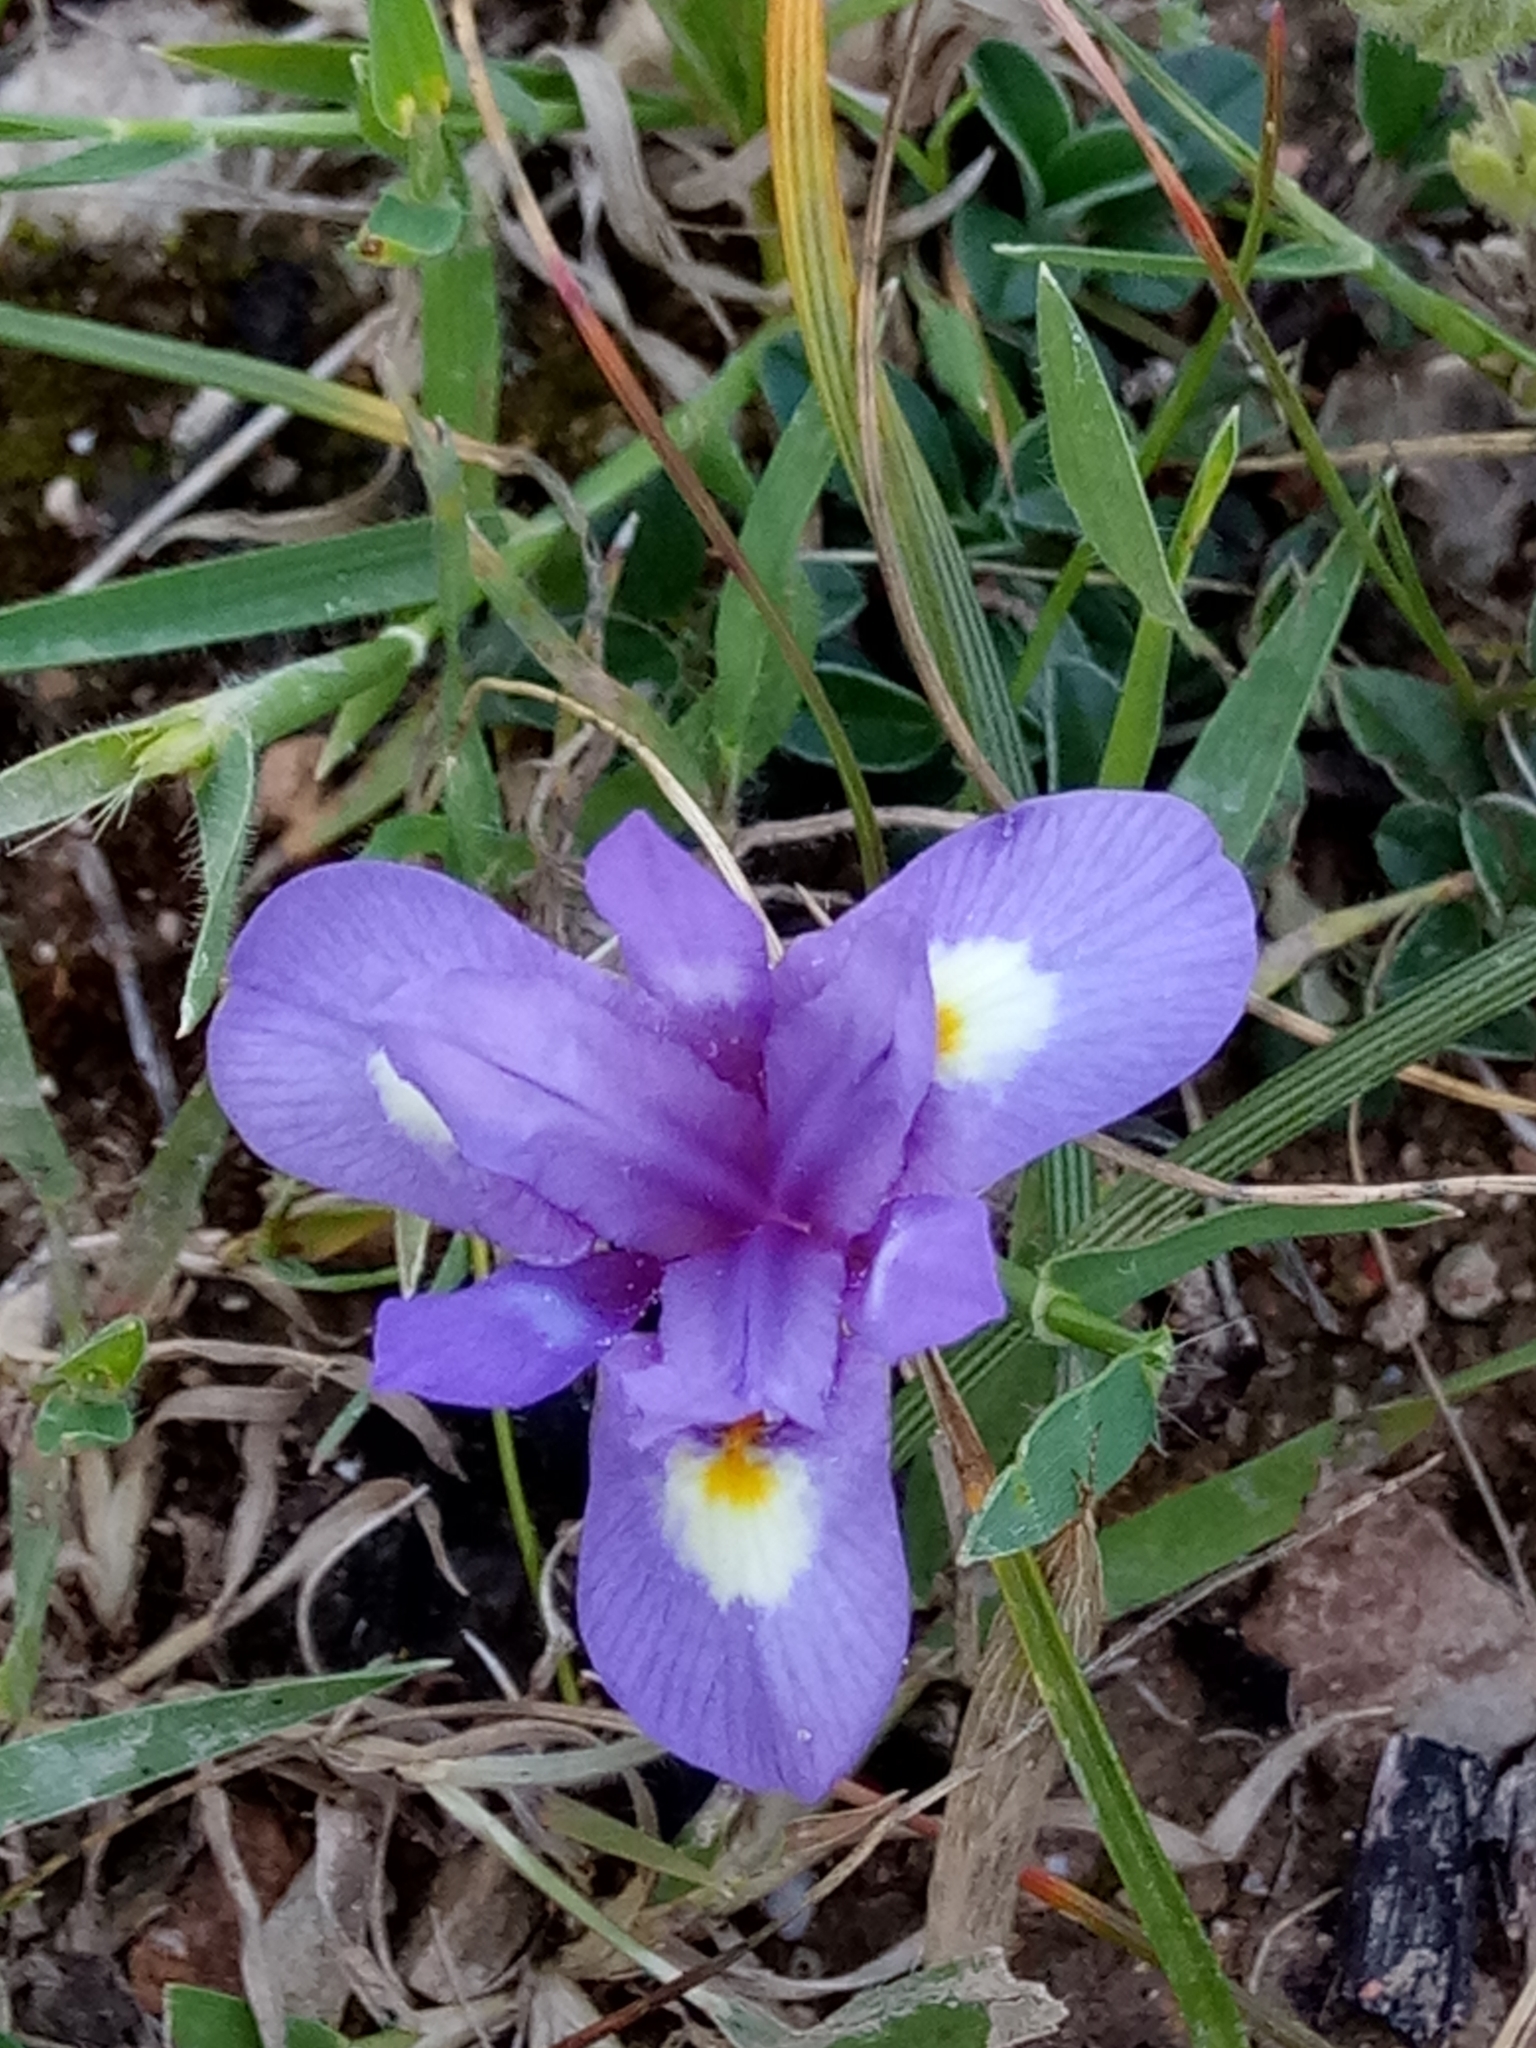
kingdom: Plantae
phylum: Tracheophyta
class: Liliopsida
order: Asparagales
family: Iridaceae
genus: Moraea
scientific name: Moraea sisyrinchium
